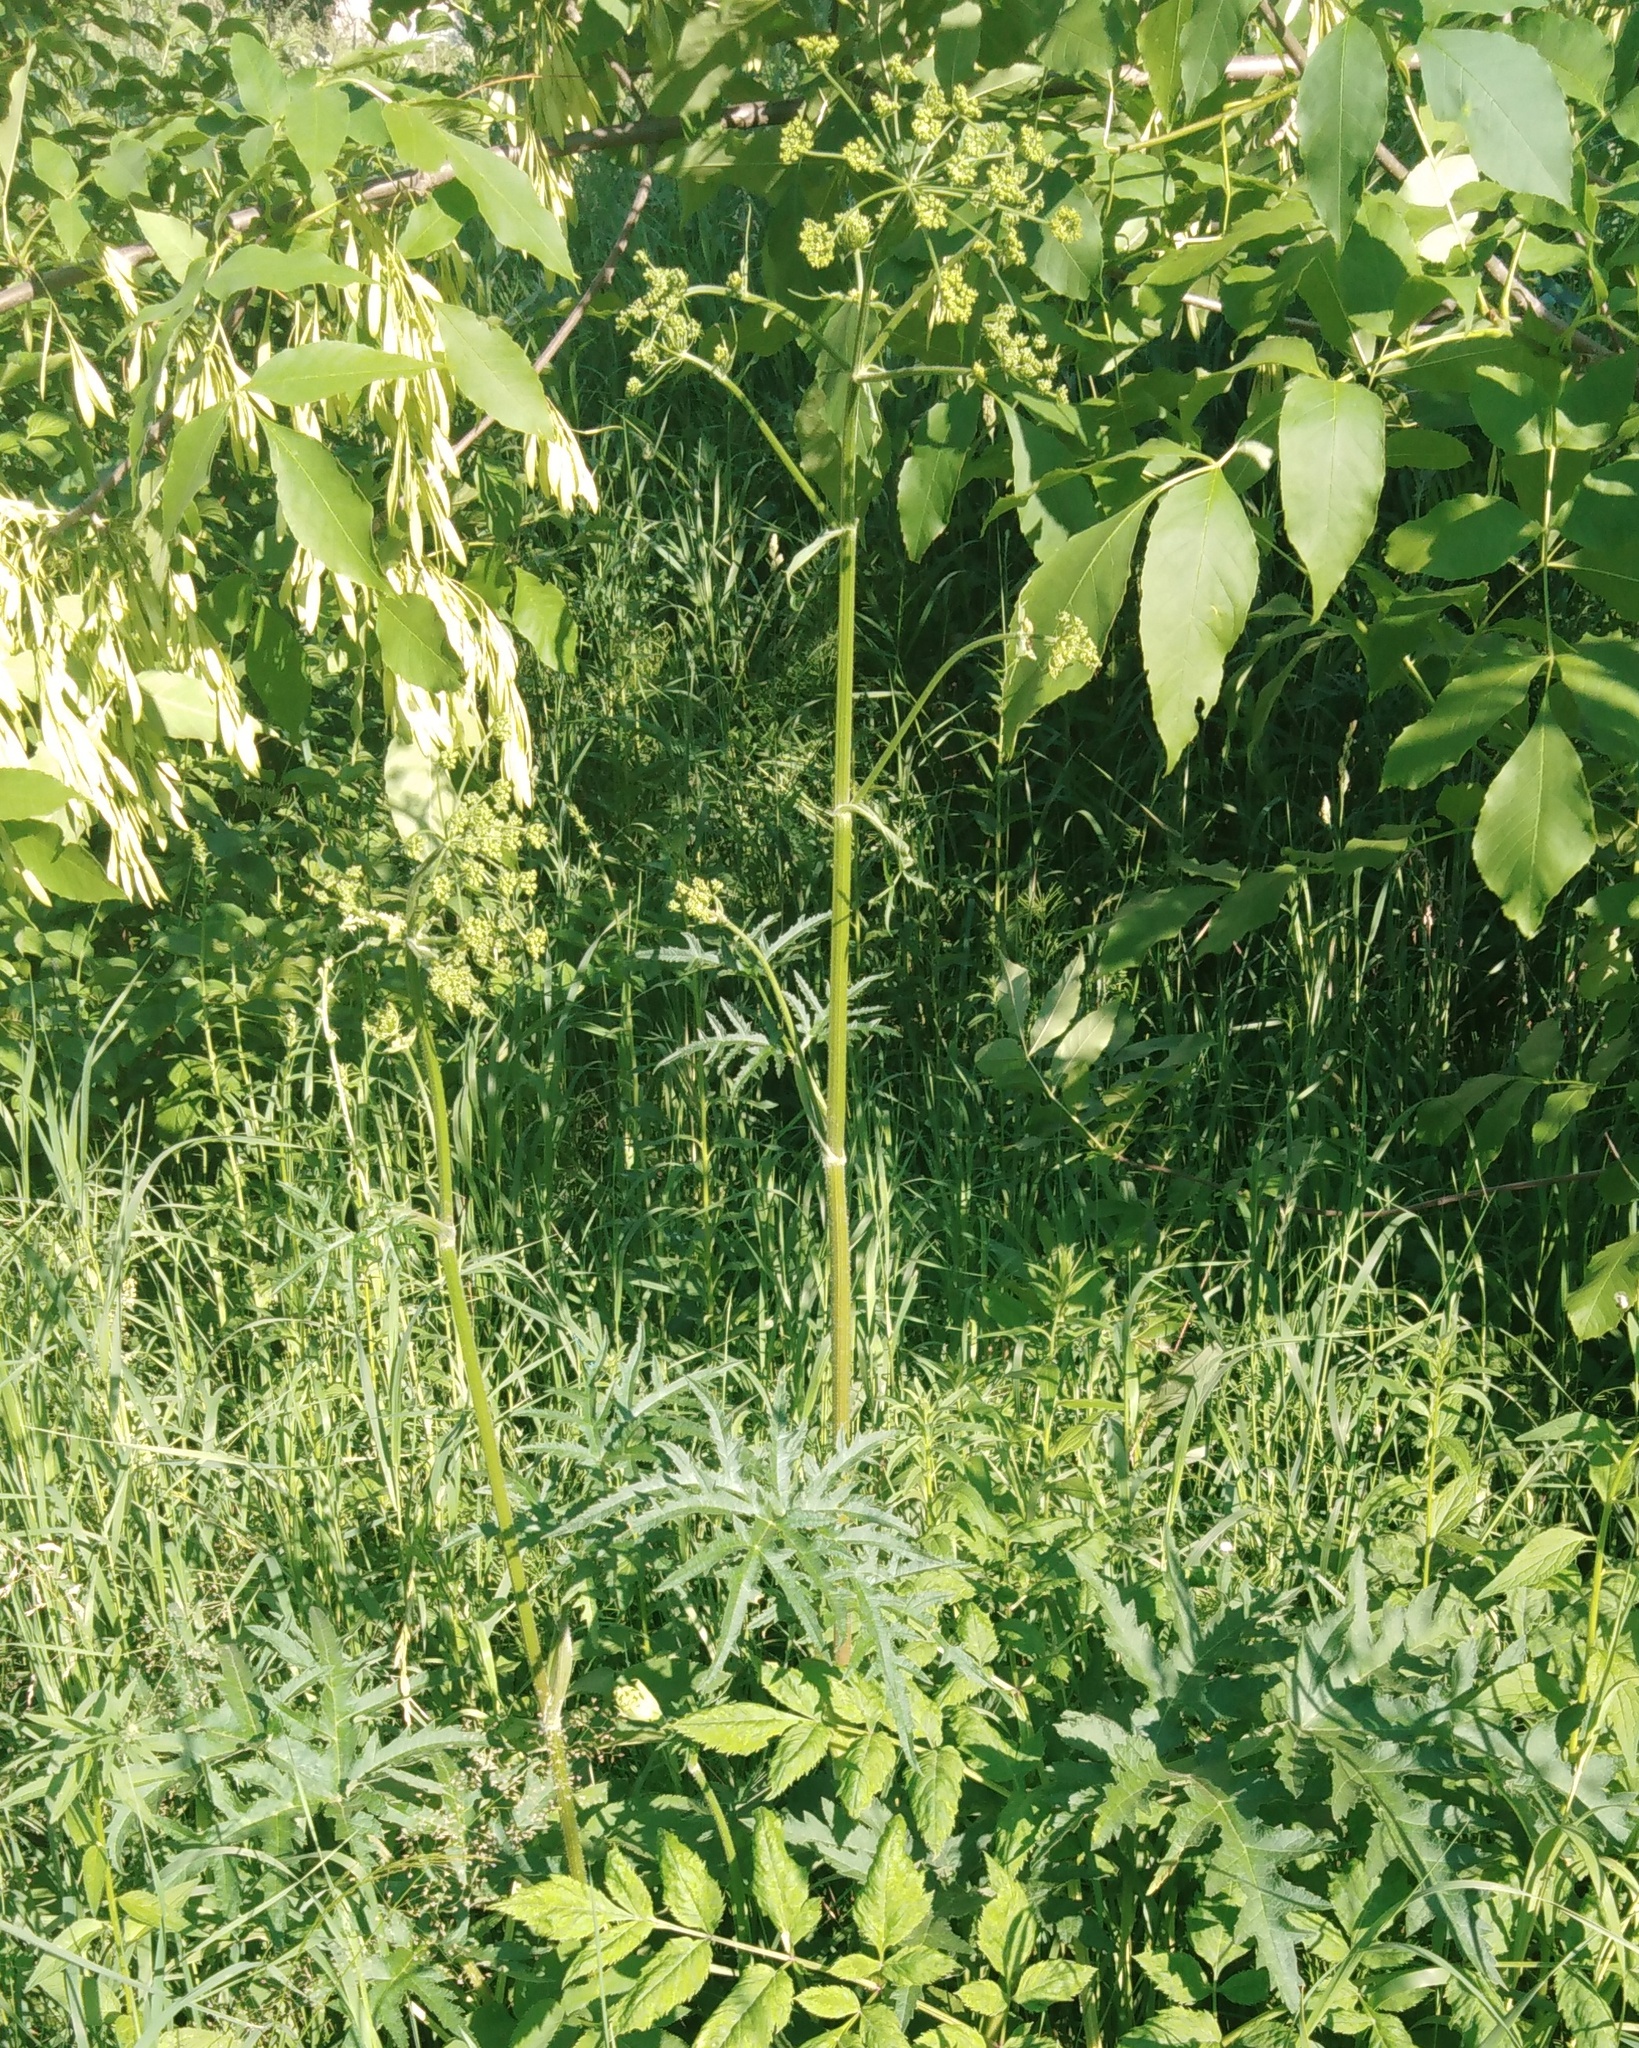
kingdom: Plantae
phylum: Tracheophyta
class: Magnoliopsida
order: Apiales
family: Apiaceae
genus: Heracleum
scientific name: Heracleum sphondylium
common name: Hogweed
